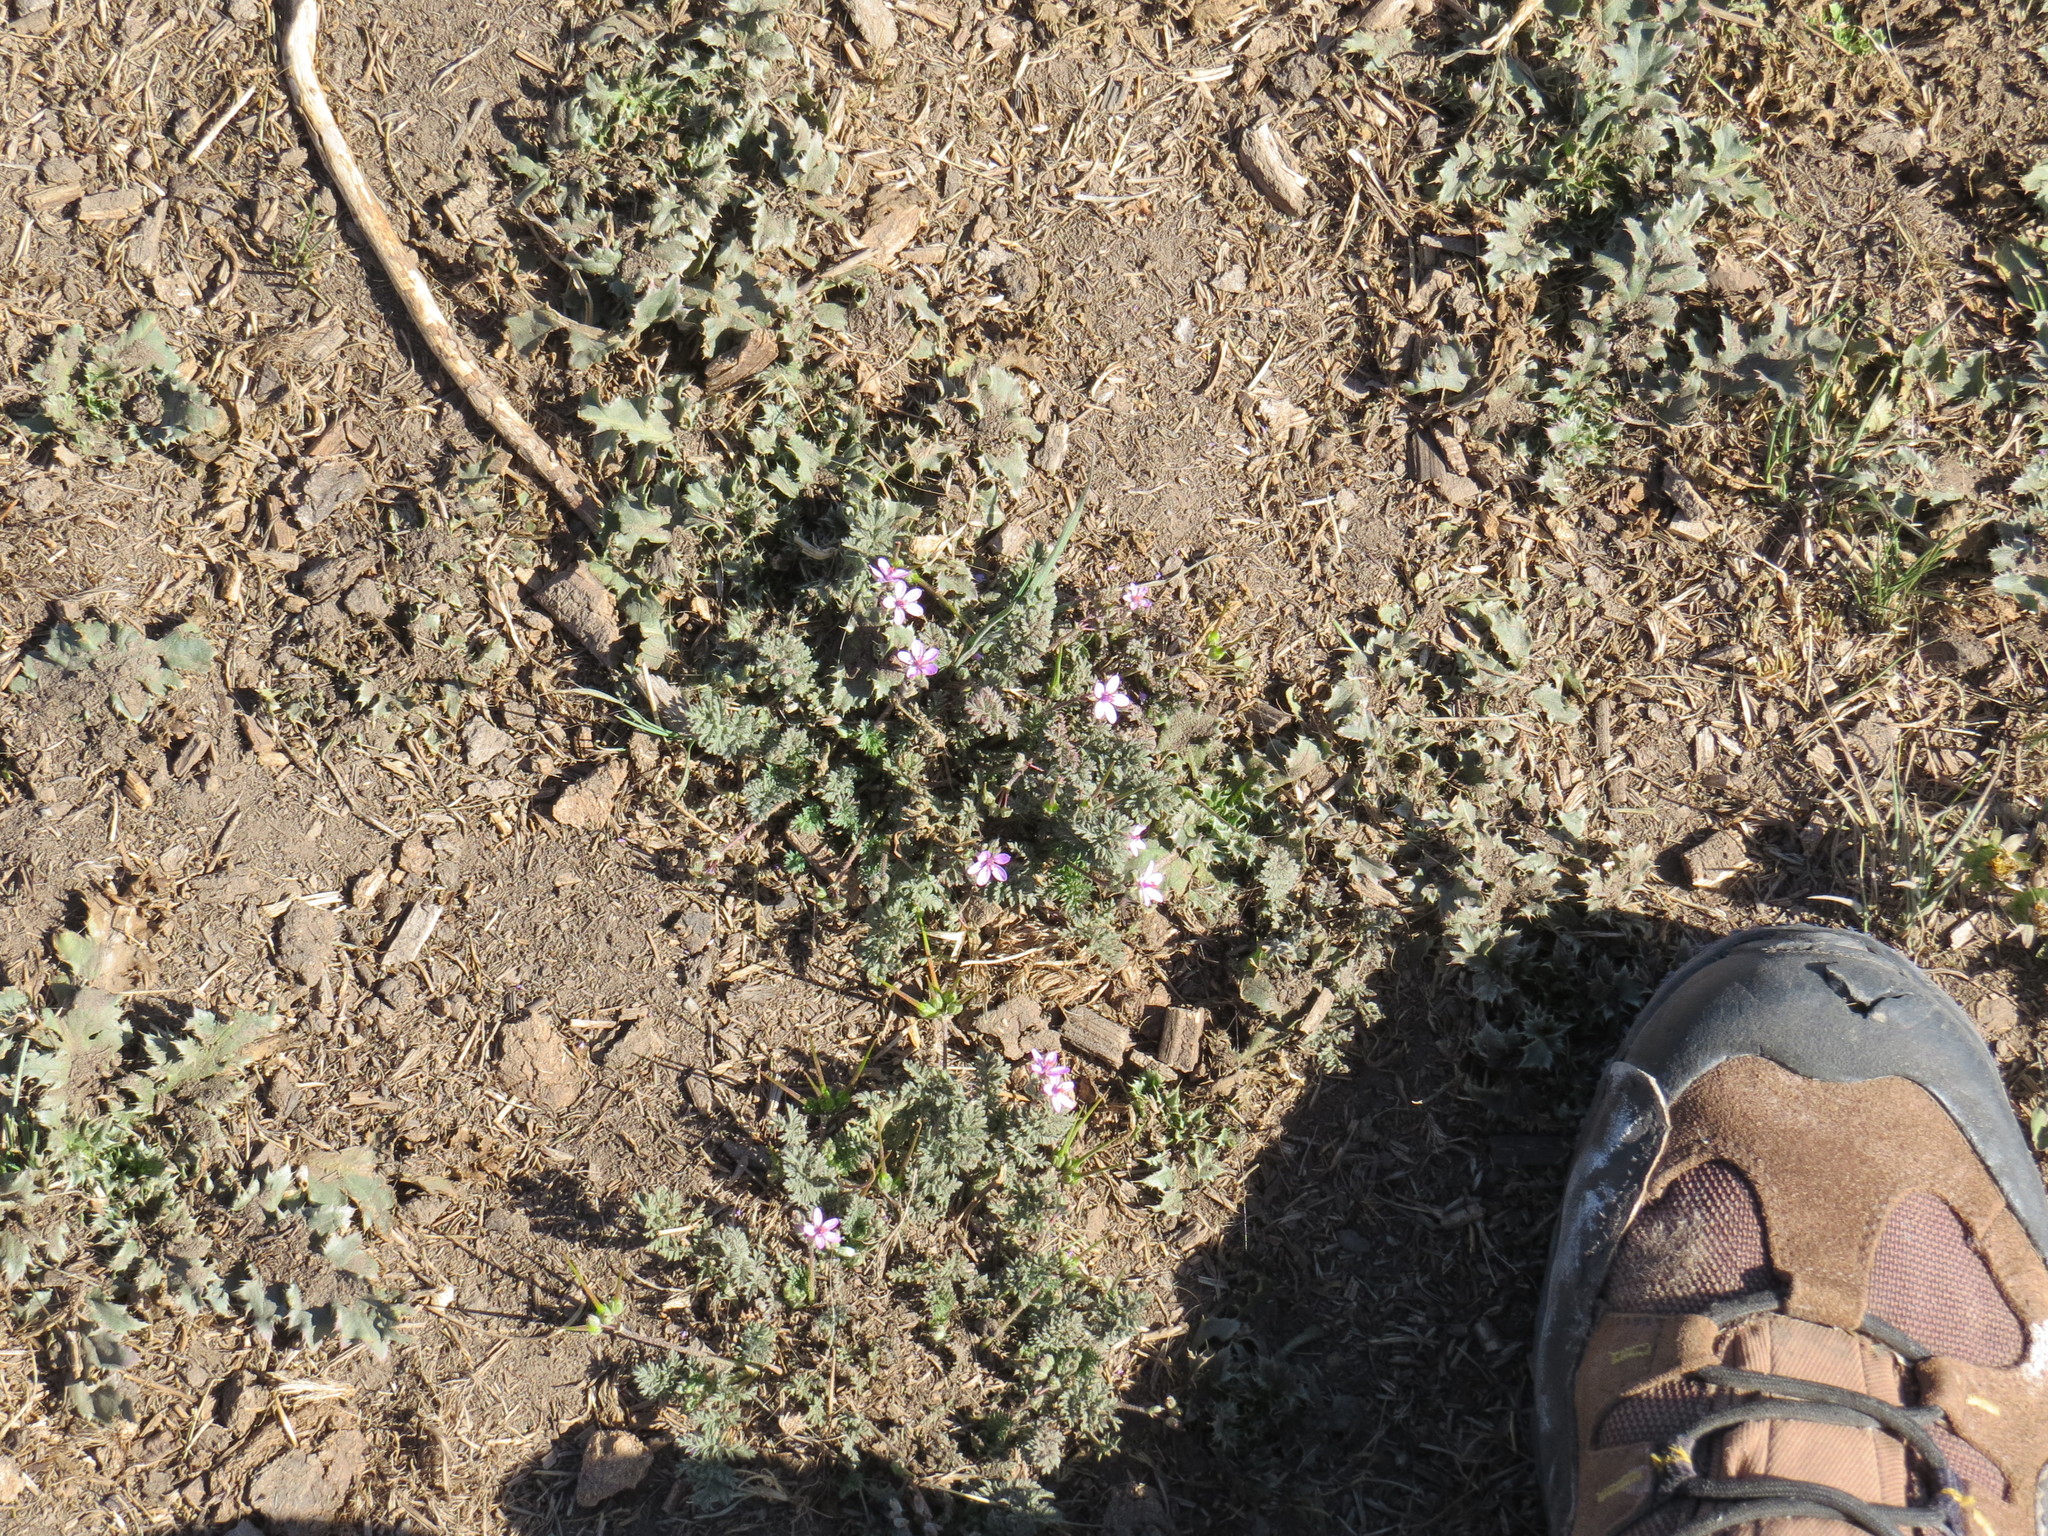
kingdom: Plantae
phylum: Tracheophyta
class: Magnoliopsida
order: Geraniales
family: Geraniaceae
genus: Erodium
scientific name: Erodium cicutarium
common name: Common stork's-bill
